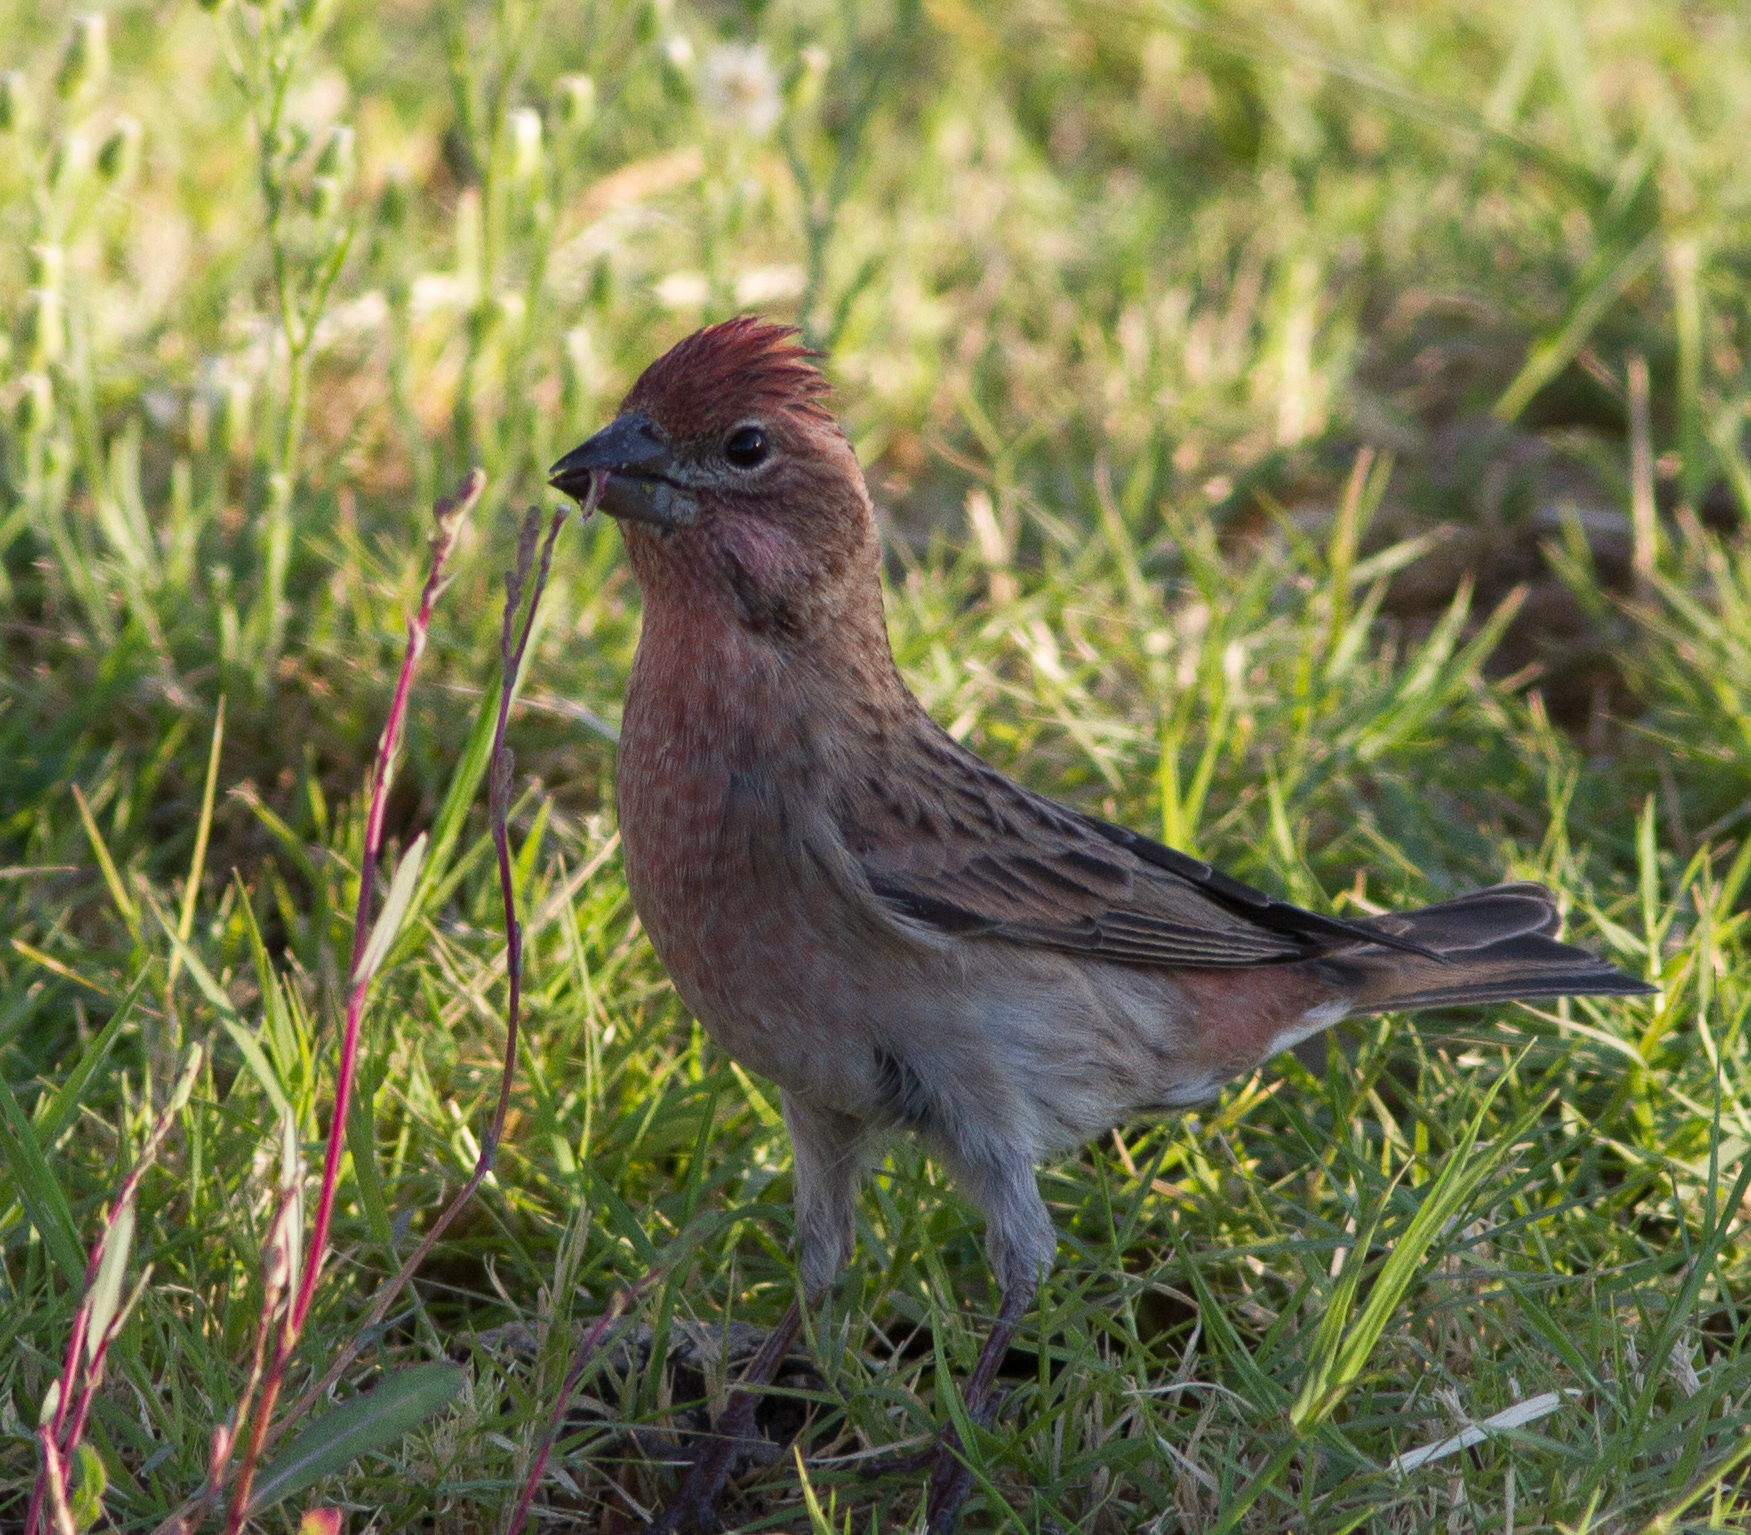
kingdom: Animalia
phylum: Chordata
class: Aves
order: Passeriformes
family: Fringillidae
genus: Haemorhous
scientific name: Haemorhous cassinii
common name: Cassin's finch
